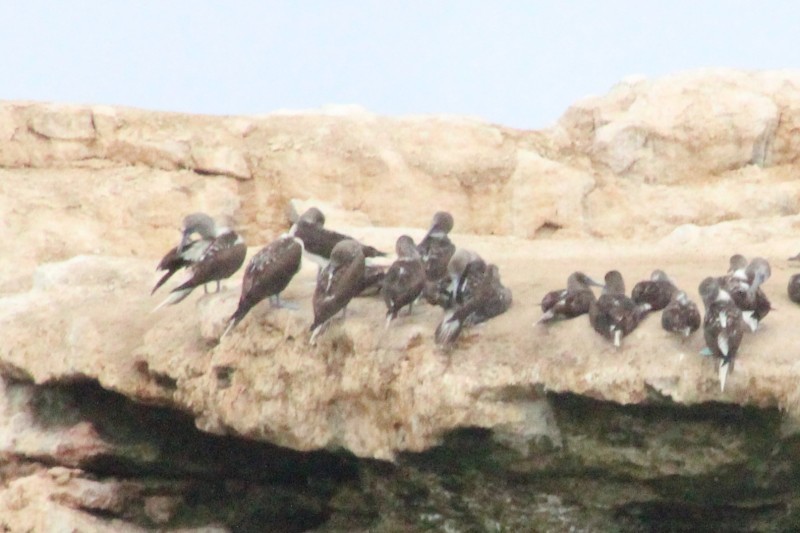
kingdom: Animalia
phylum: Chordata
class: Aves
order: Suliformes
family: Sulidae
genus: Sula
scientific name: Sula nebouxii
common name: Blue-footed booby
